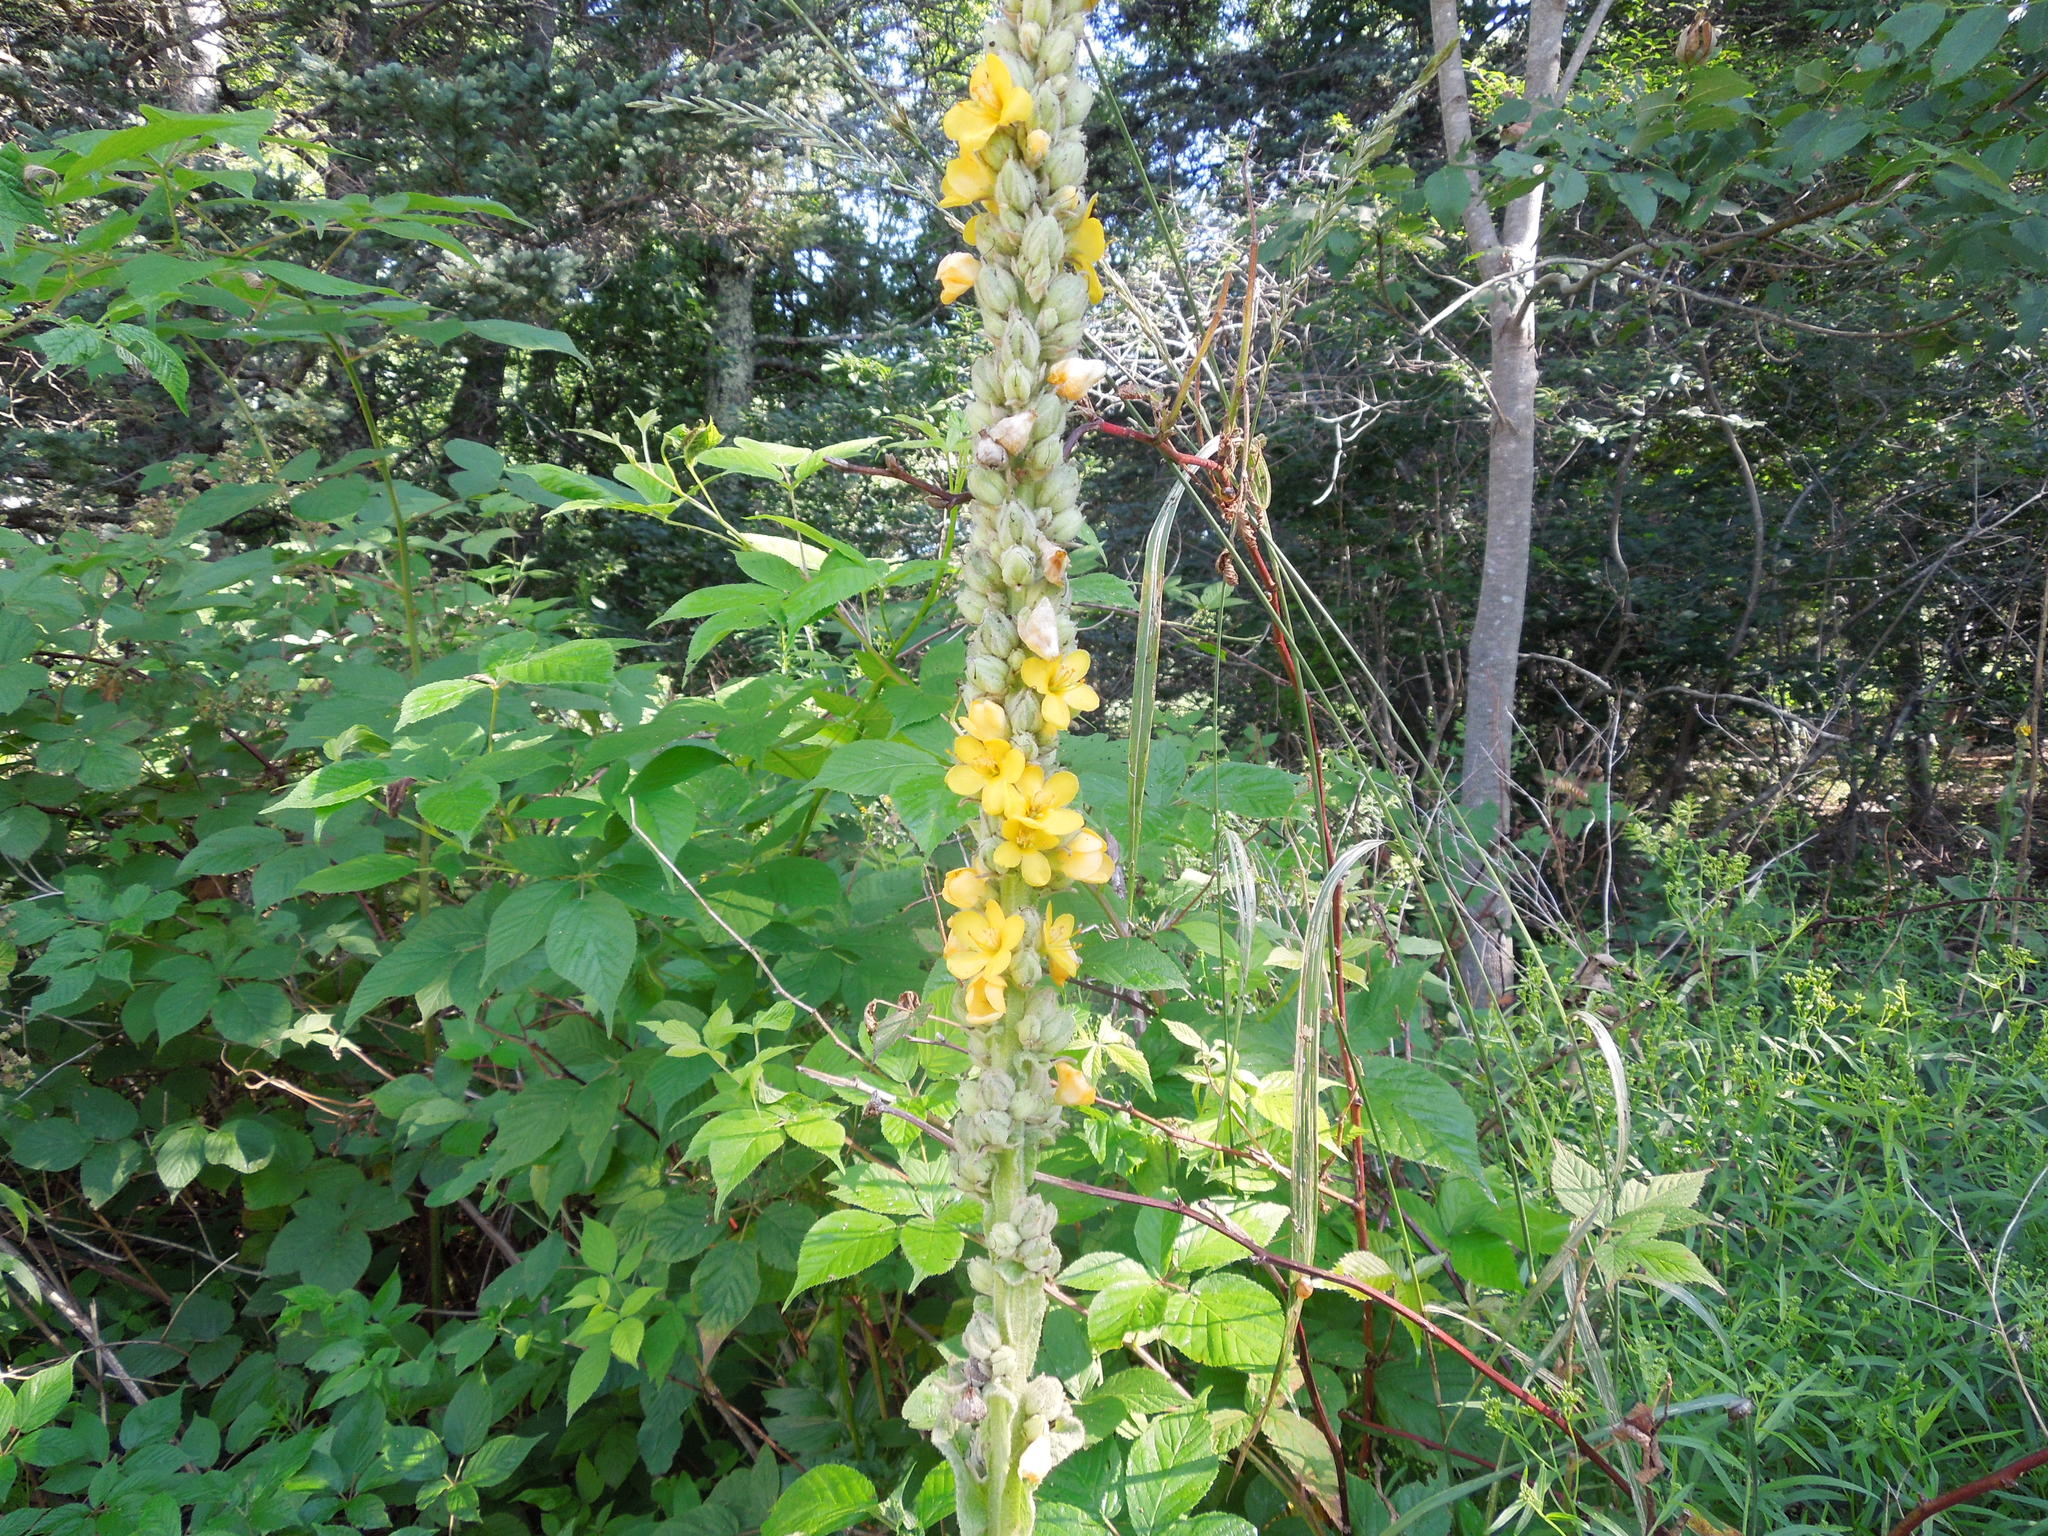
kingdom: Plantae
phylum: Tracheophyta
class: Magnoliopsida
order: Lamiales
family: Scrophulariaceae
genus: Verbascum
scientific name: Verbascum thapsus
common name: Common mullein
